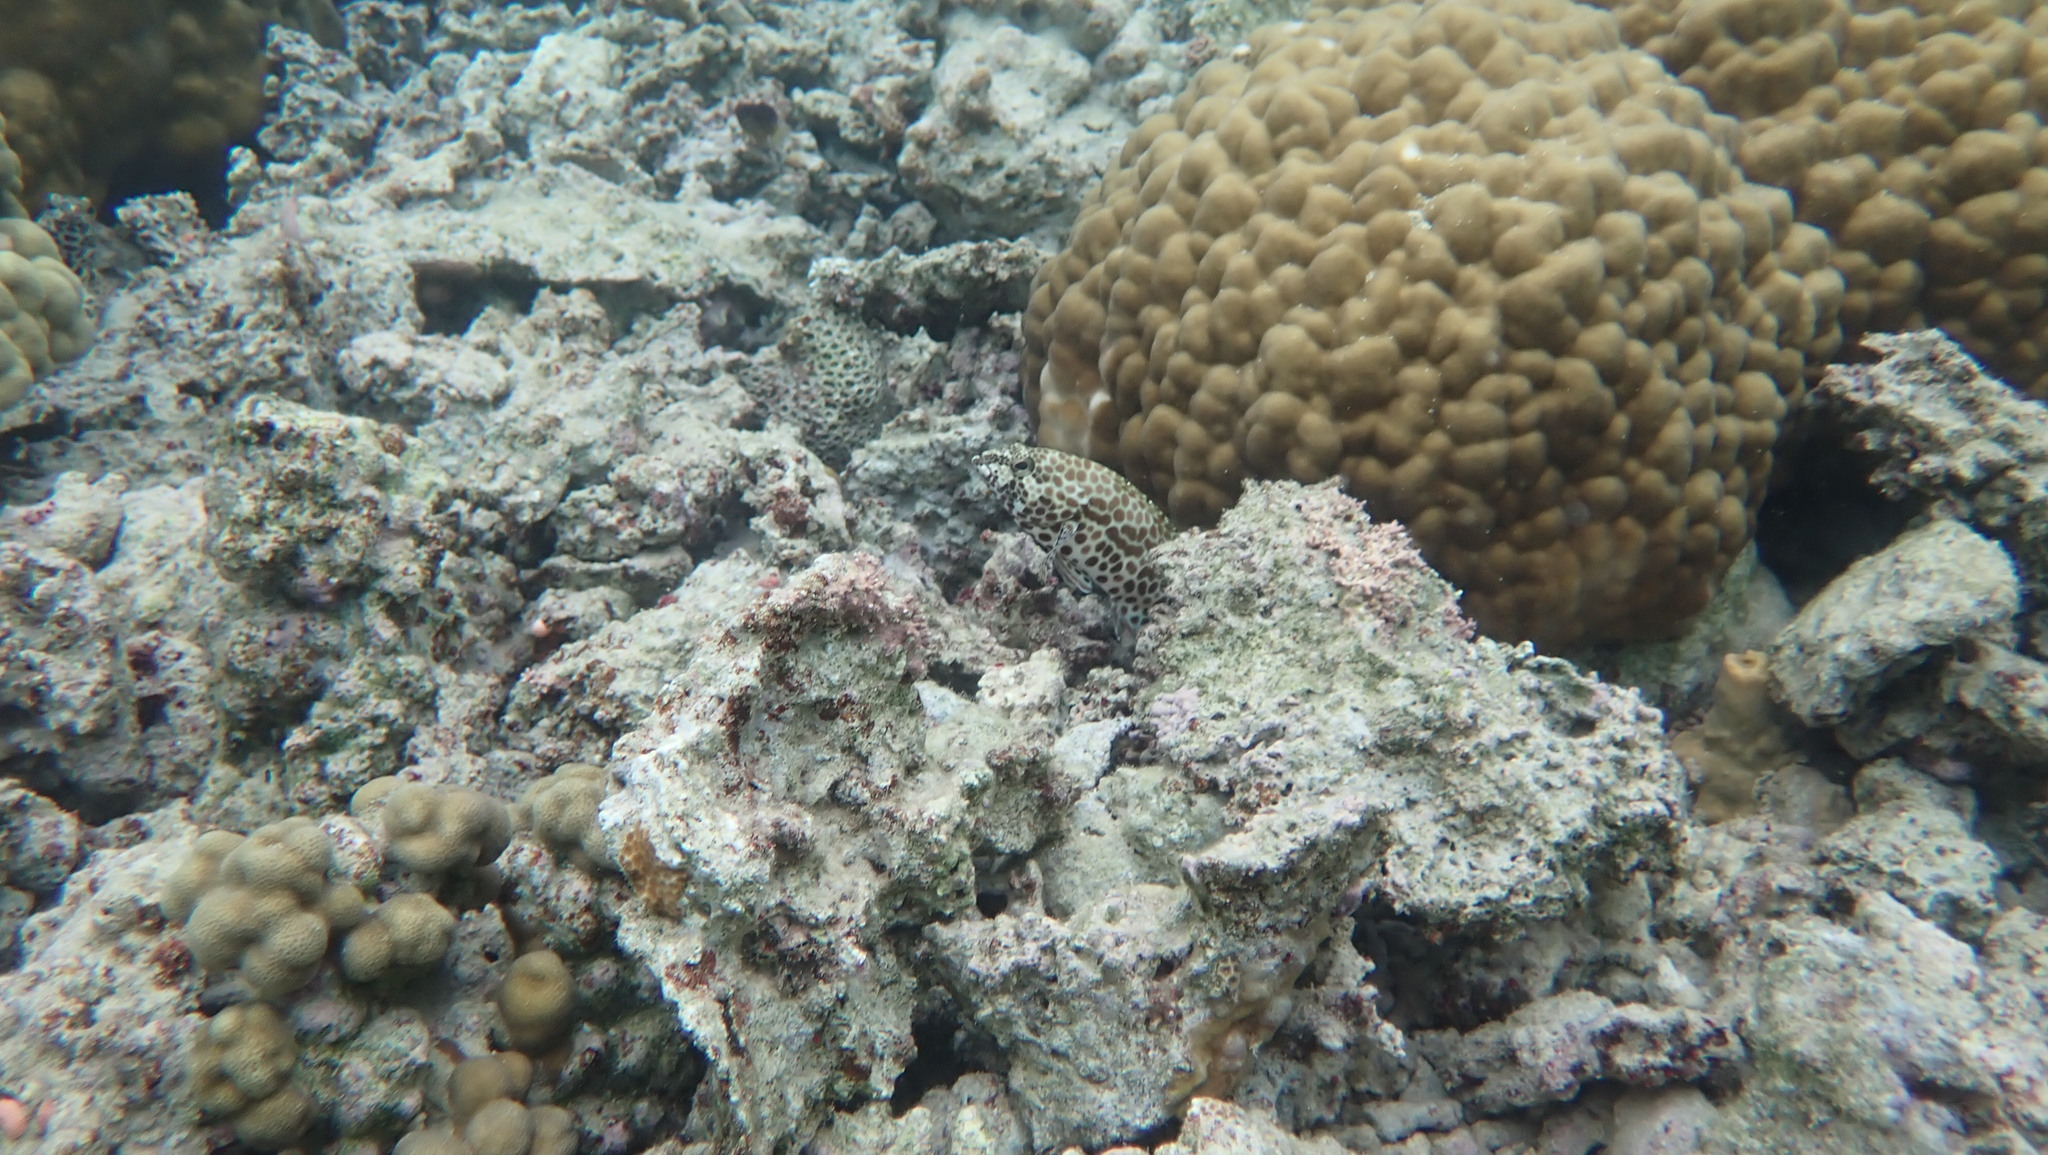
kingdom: Animalia
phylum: Chordata
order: Perciformes
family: Serranidae
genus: Epinephelus
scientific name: Epinephelus merra
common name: Honeycomb grouper
